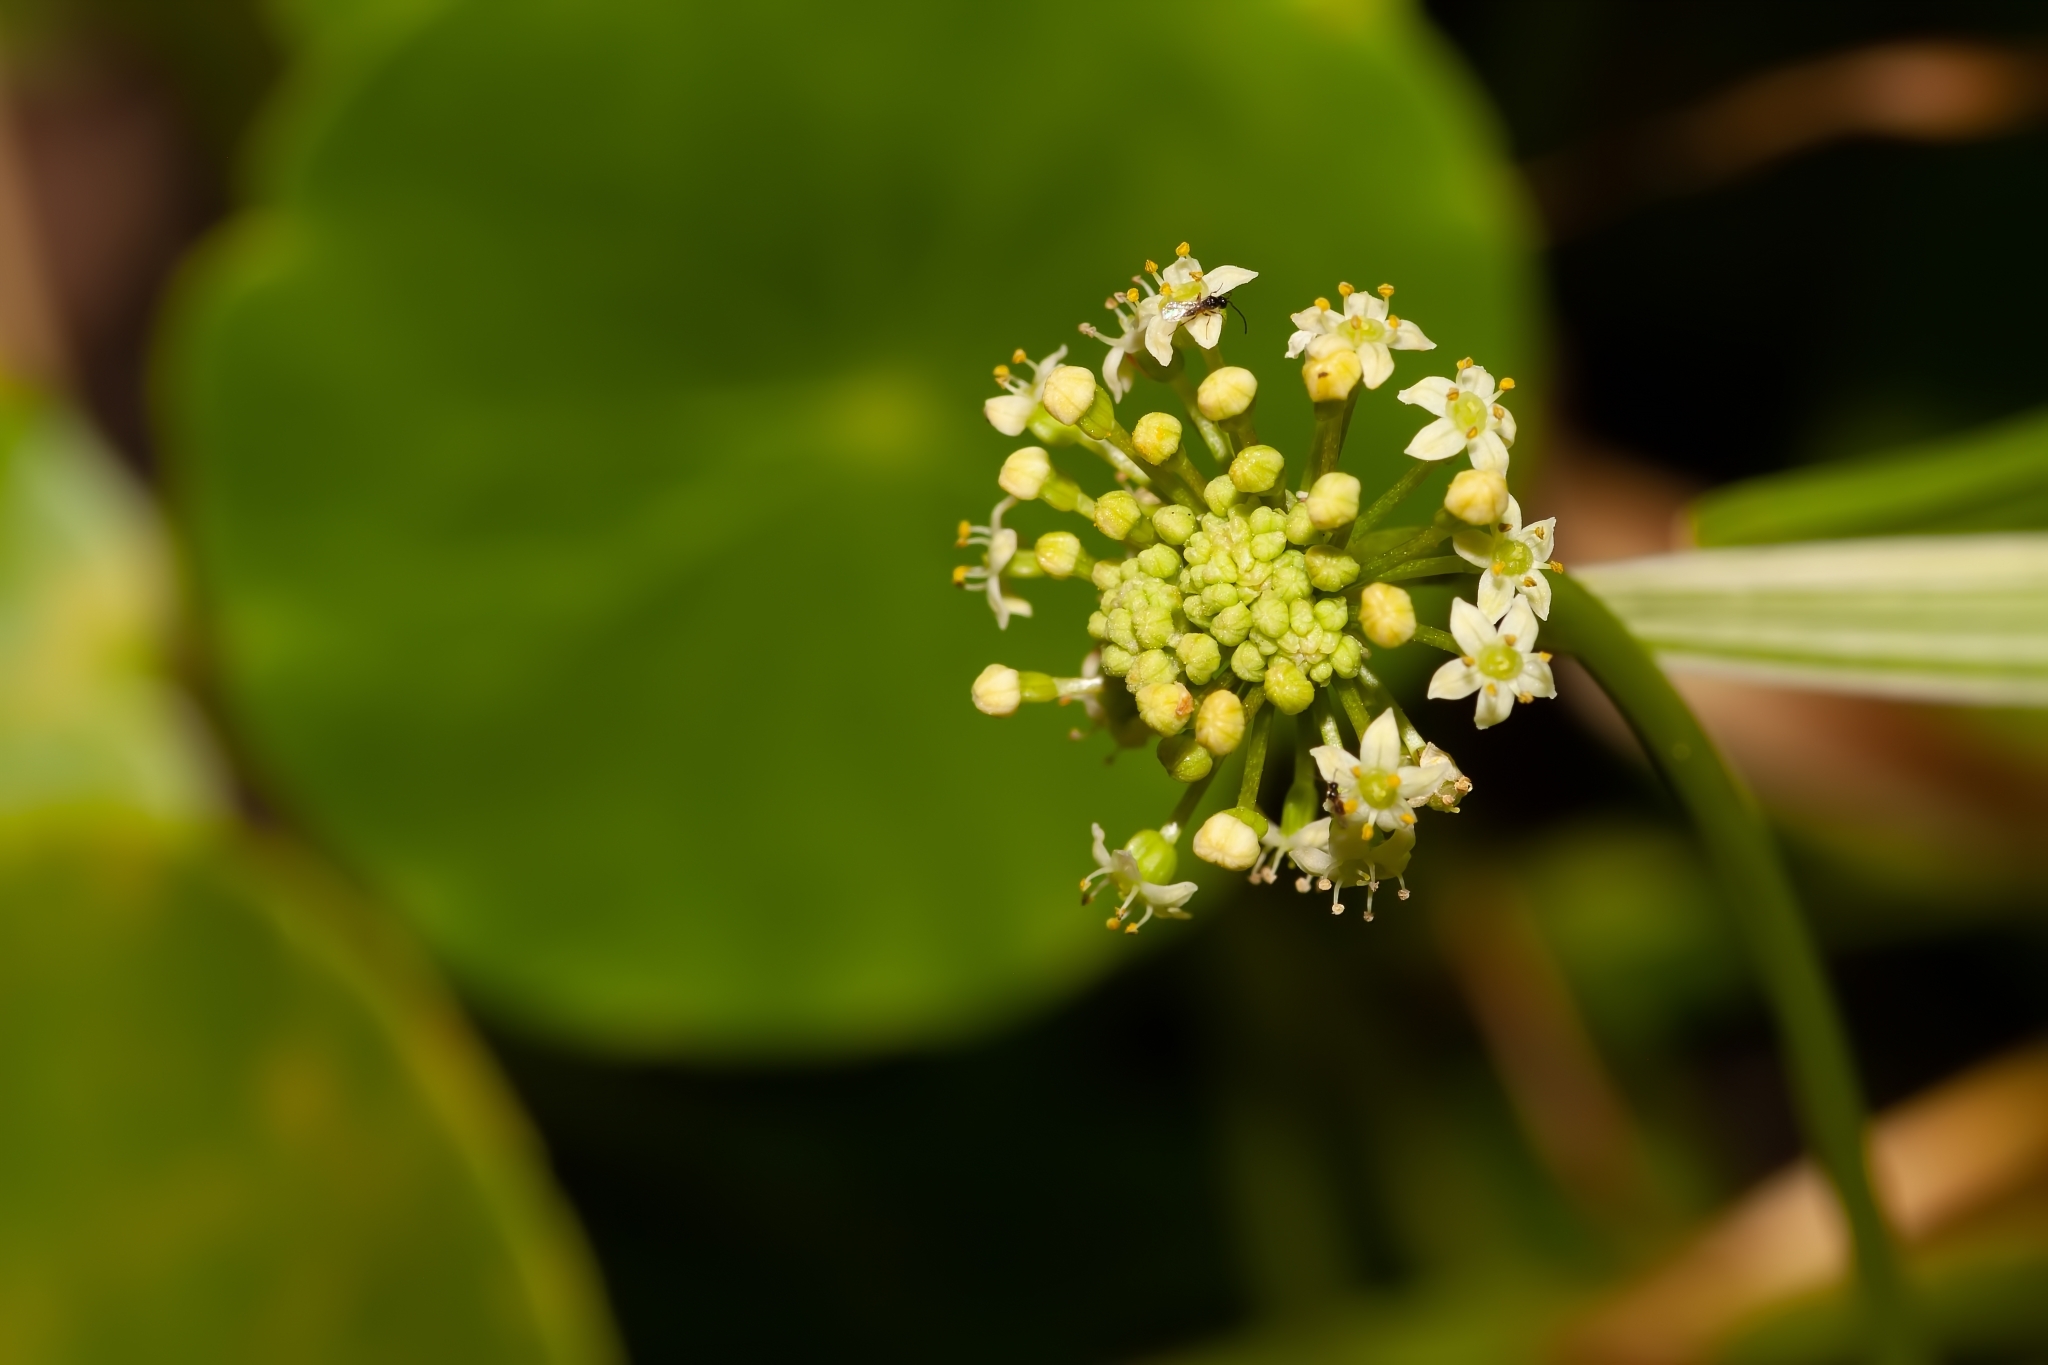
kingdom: Plantae
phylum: Tracheophyta
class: Magnoliopsida
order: Apiales
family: Araliaceae
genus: Hydrocotyle
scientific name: Hydrocotyle umbellata
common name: Water pennywort
